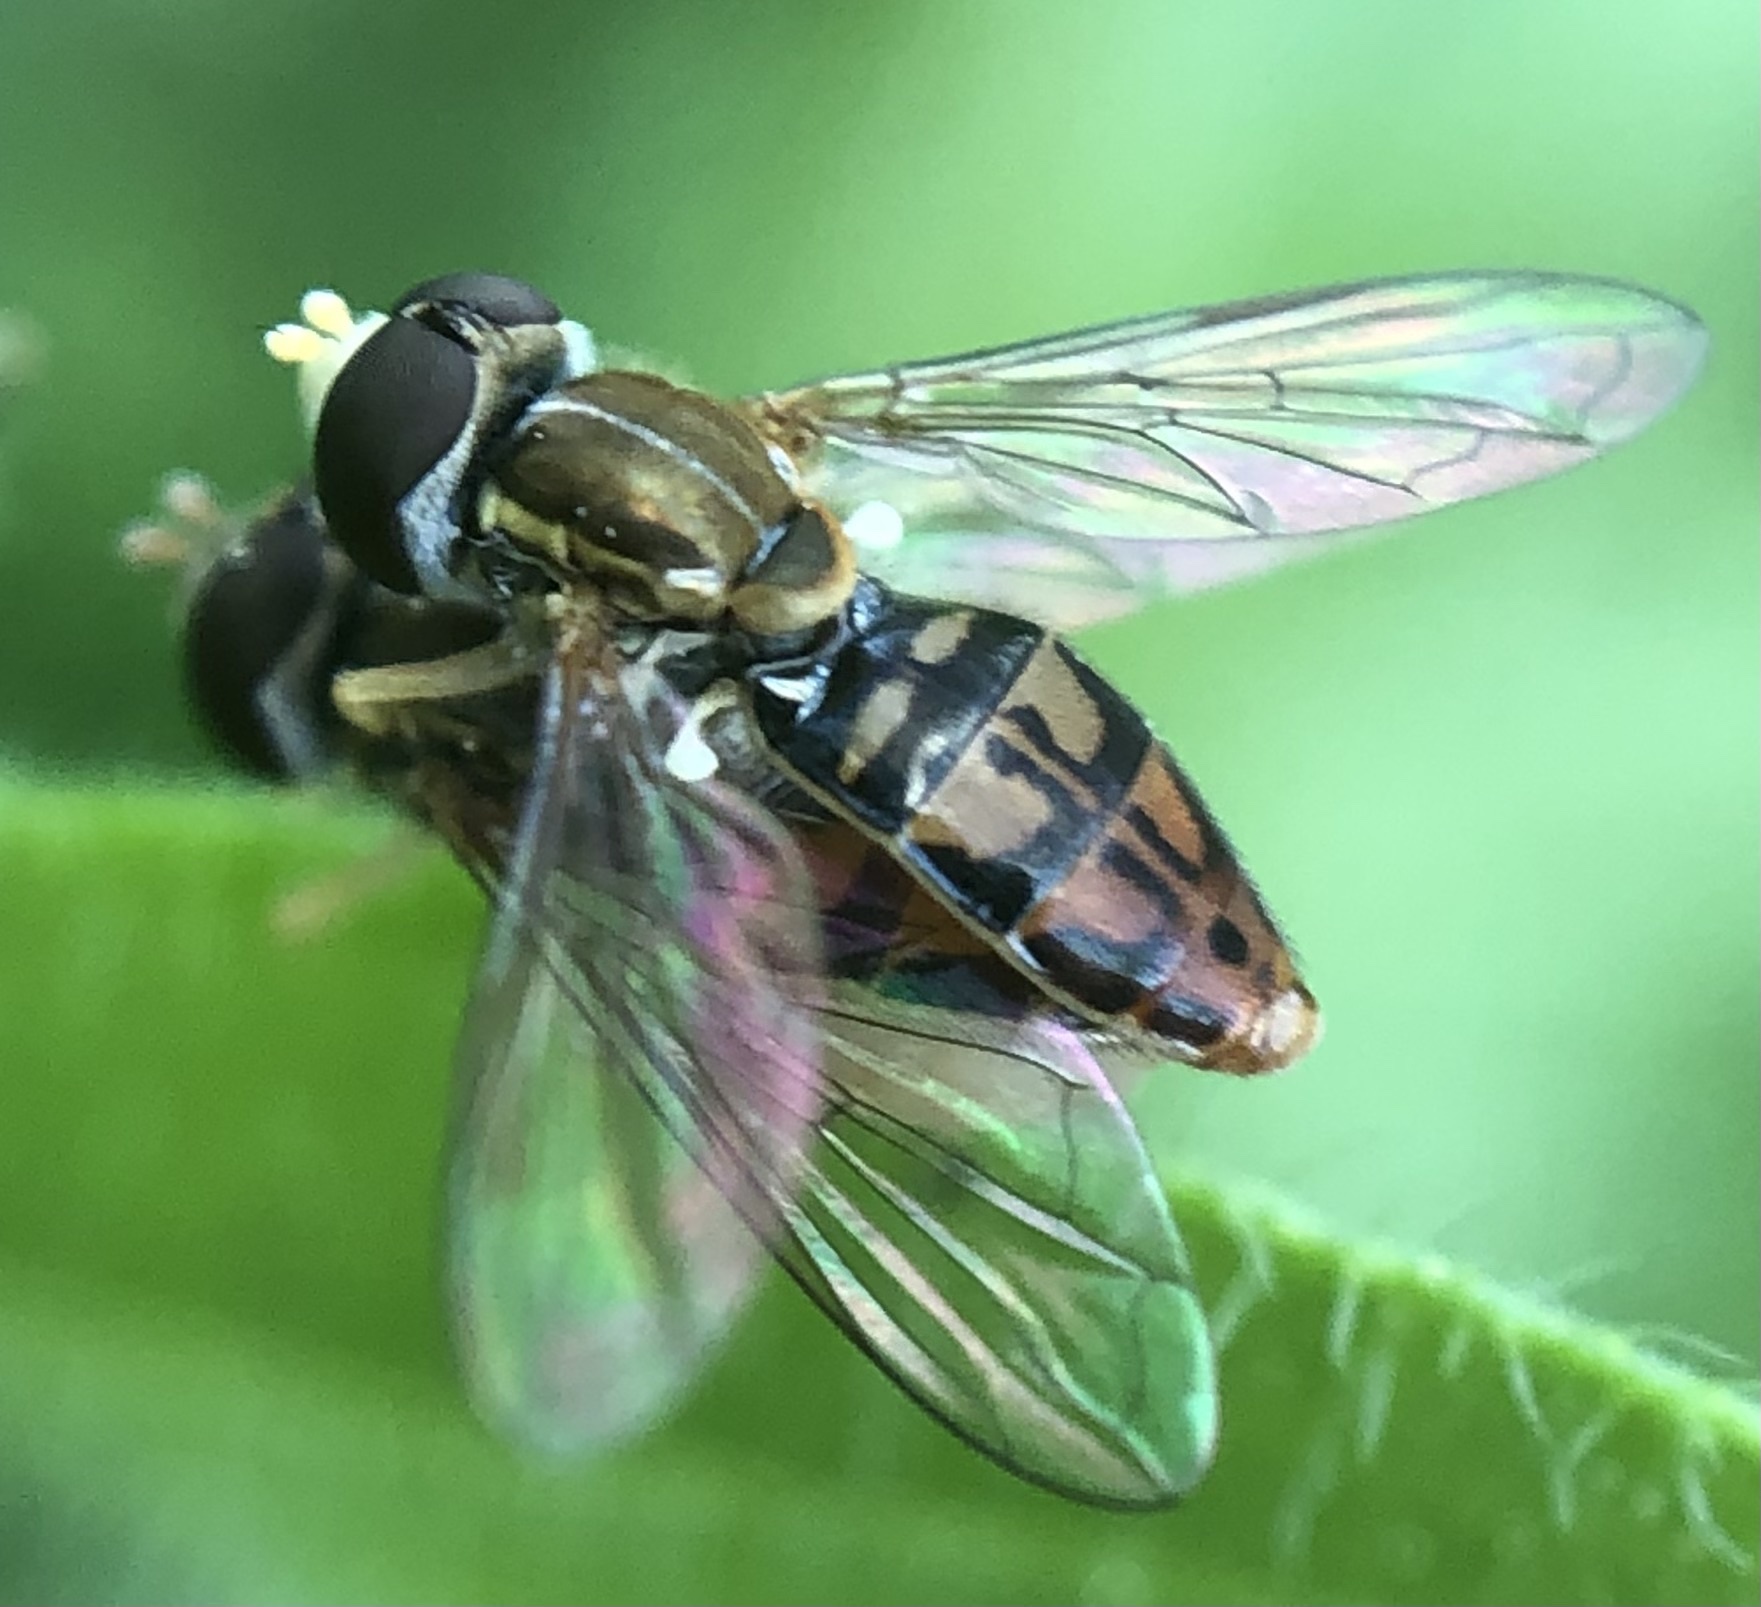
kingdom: Animalia
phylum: Arthropoda
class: Insecta
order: Diptera
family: Syrphidae
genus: Toxomerus
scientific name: Toxomerus marginatus
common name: Syrphid fly
